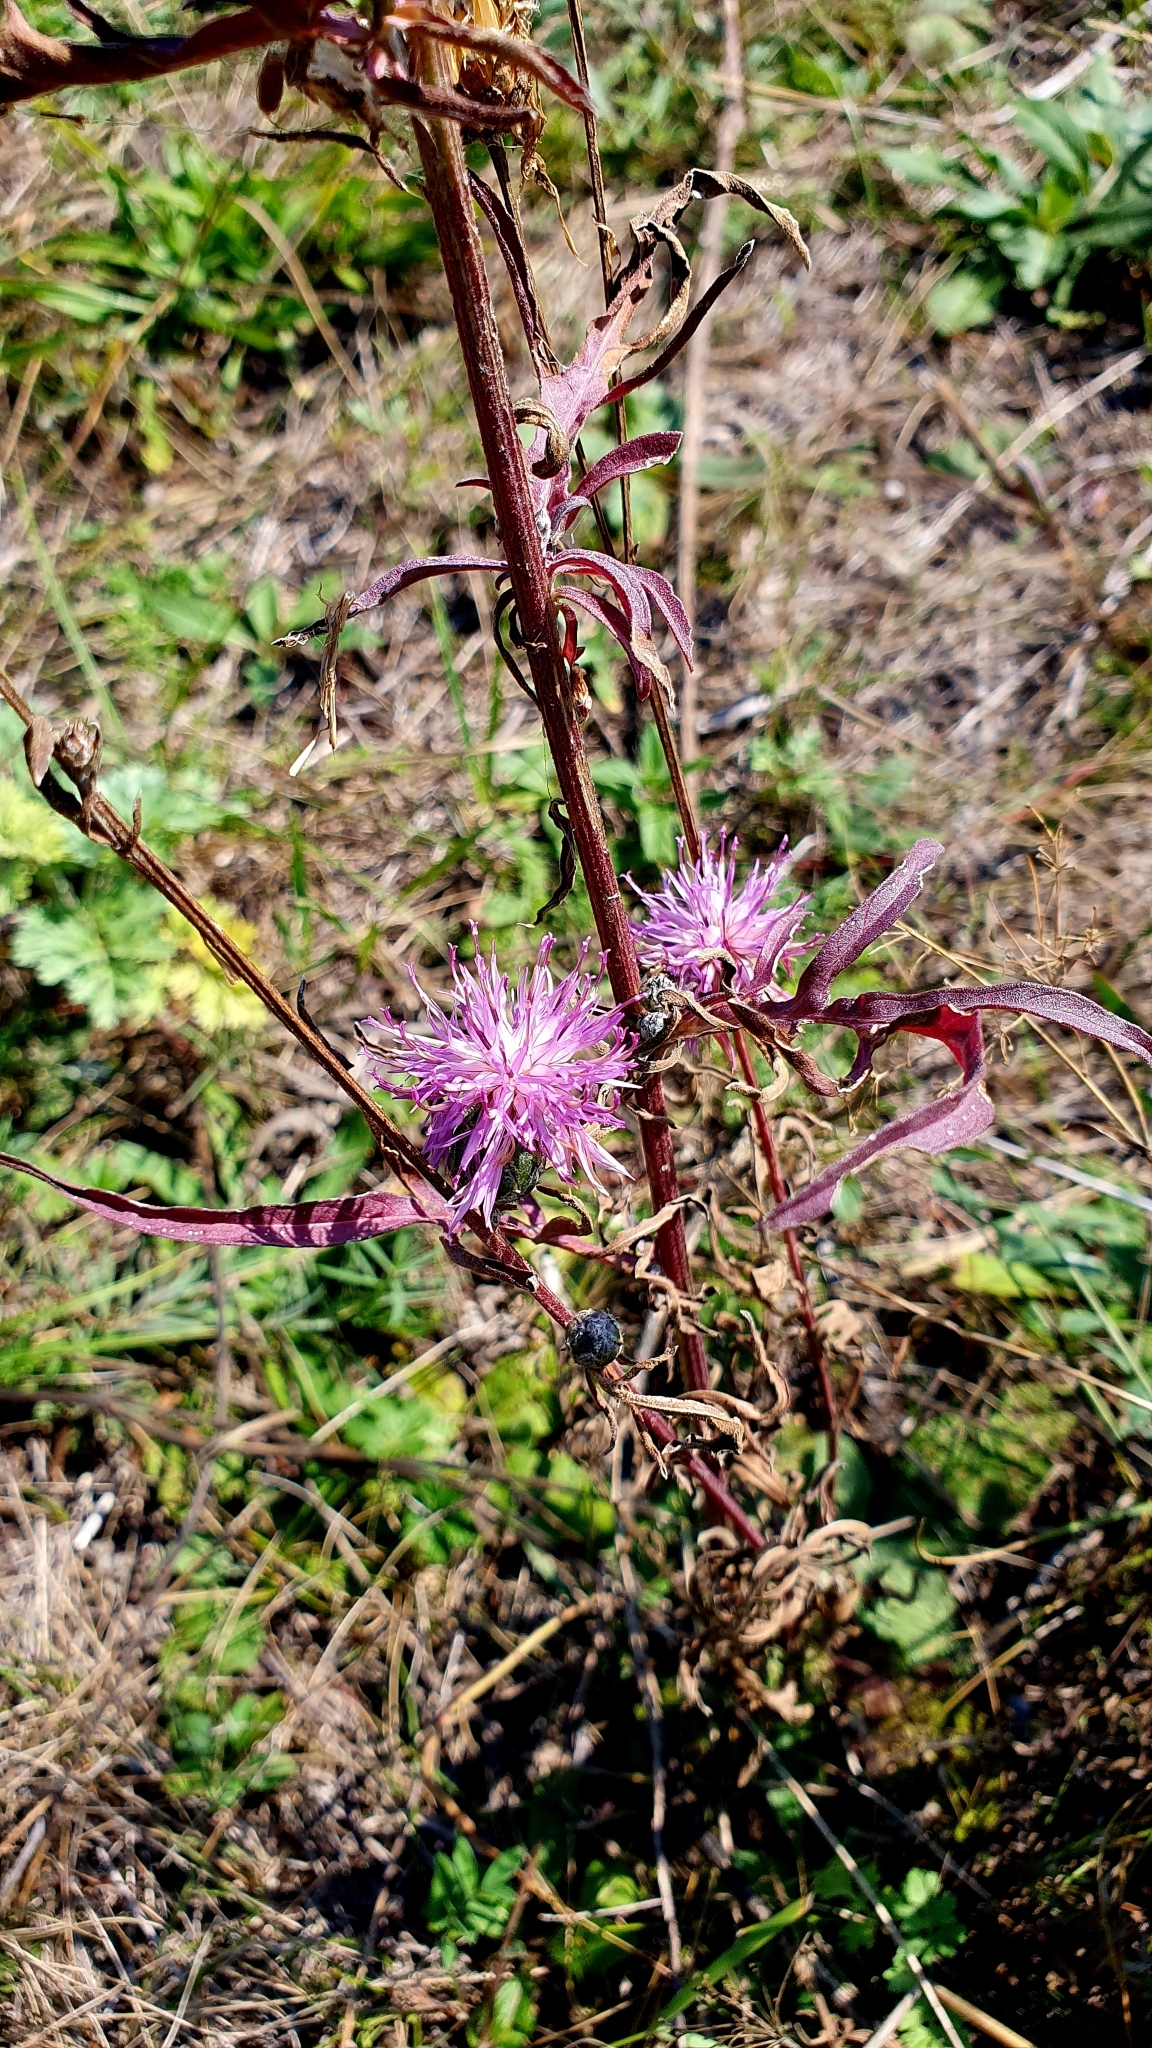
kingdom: Plantae
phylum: Tracheophyta
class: Magnoliopsida
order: Asterales
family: Asteraceae
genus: Centaurea
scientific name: Centaurea scabiosa
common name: Greater knapweed
